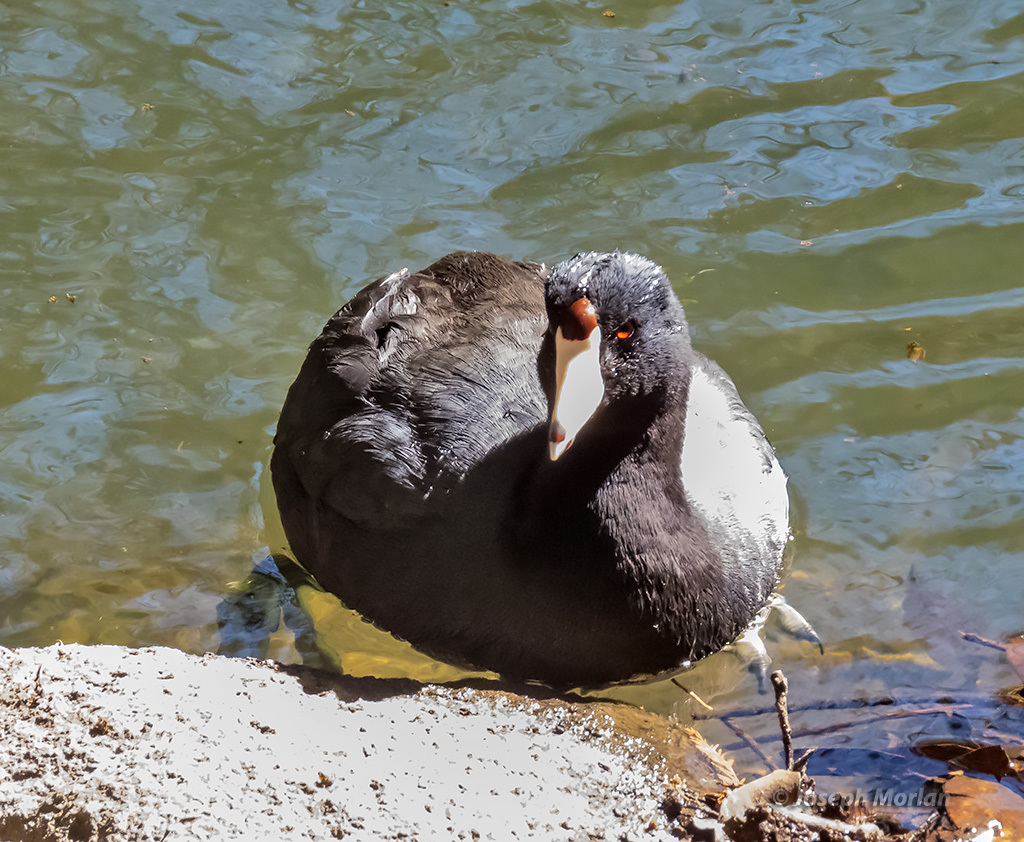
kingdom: Animalia
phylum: Chordata
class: Aves
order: Gruiformes
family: Rallidae
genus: Fulica
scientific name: Fulica americana
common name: American coot
